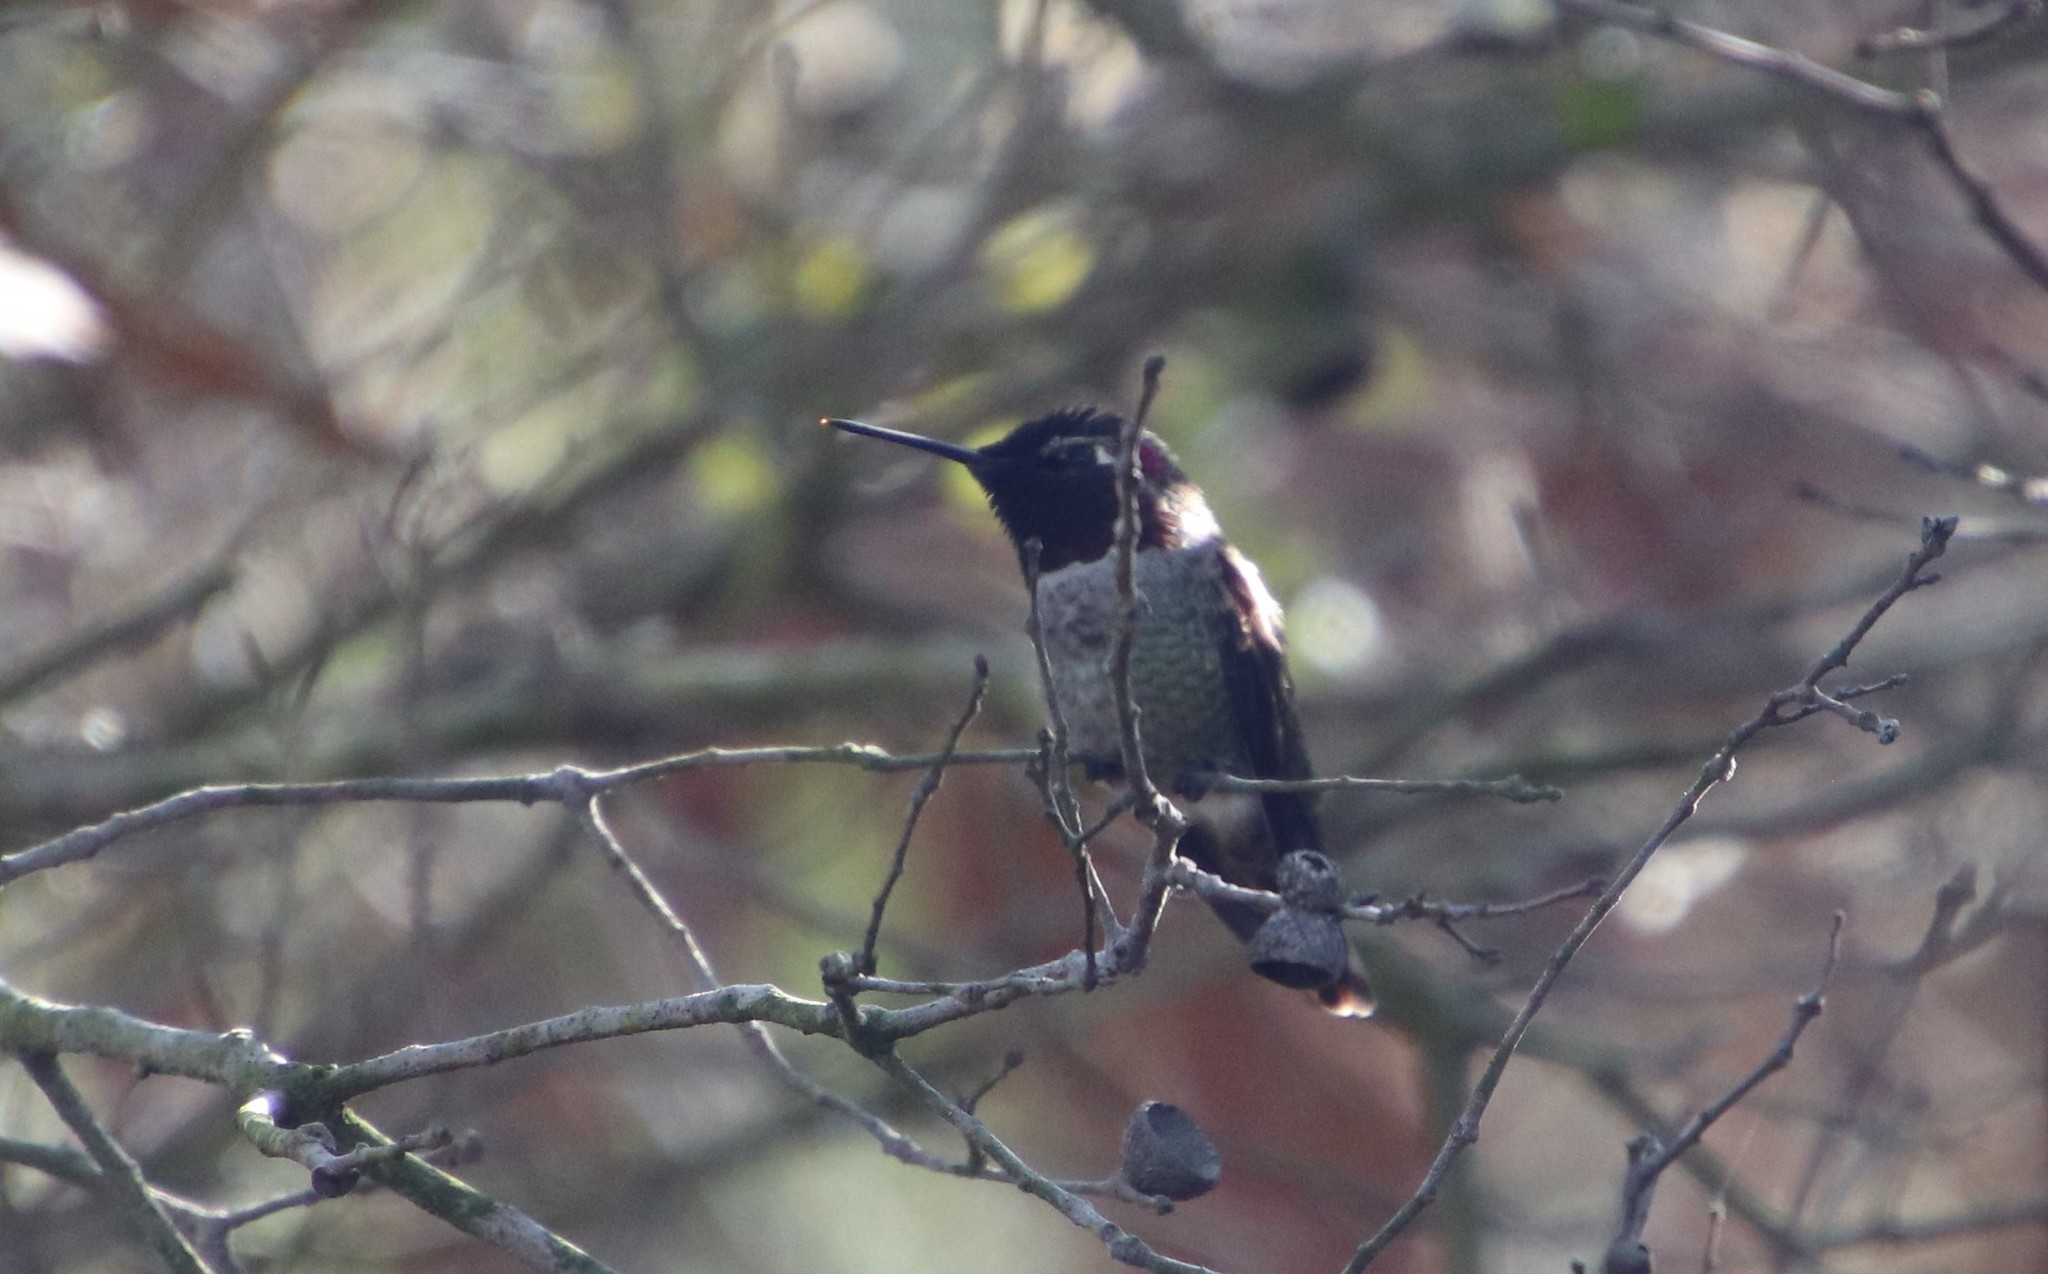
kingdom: Animalia
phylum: Chordata
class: Aves
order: Apodiformes
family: Trochilidae
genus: Calypte
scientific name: Calypte anna
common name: Anna's hummingbird
